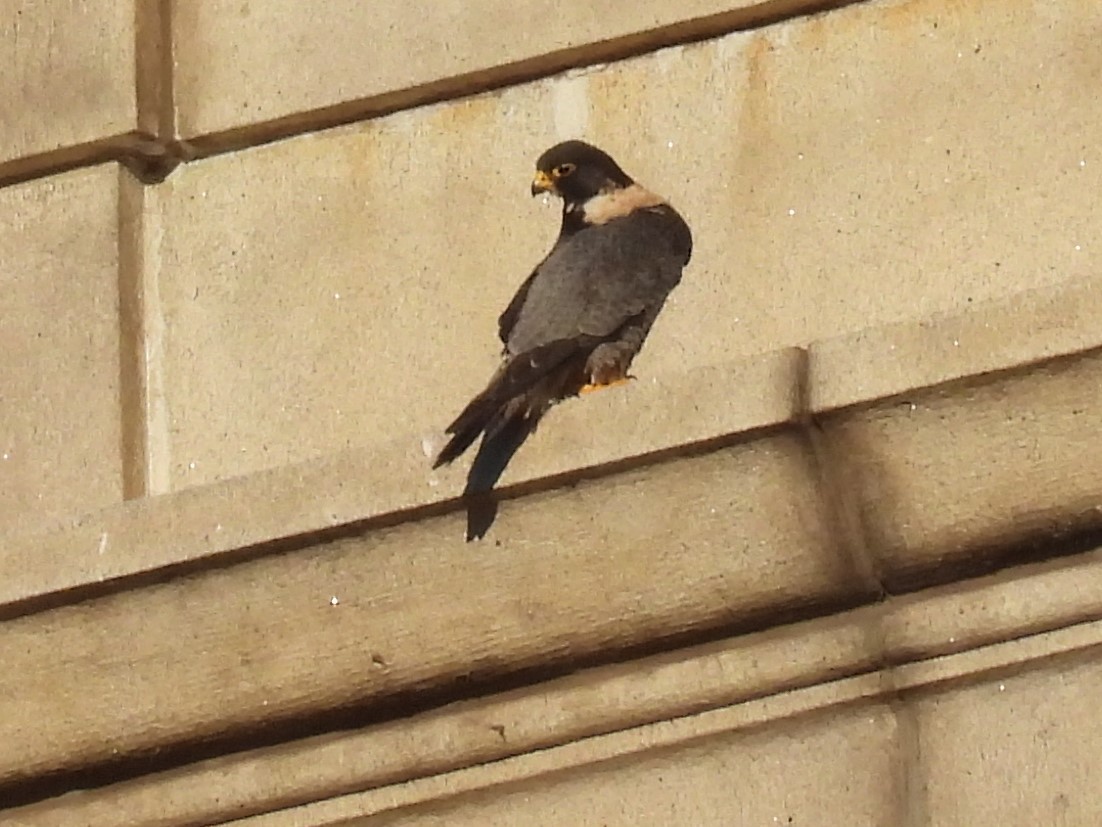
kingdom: Animalia
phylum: Chordata
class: Aves
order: Falconiformes
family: Falconidae
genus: Falco
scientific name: Falco peregrinus
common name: Peregrine falcon
